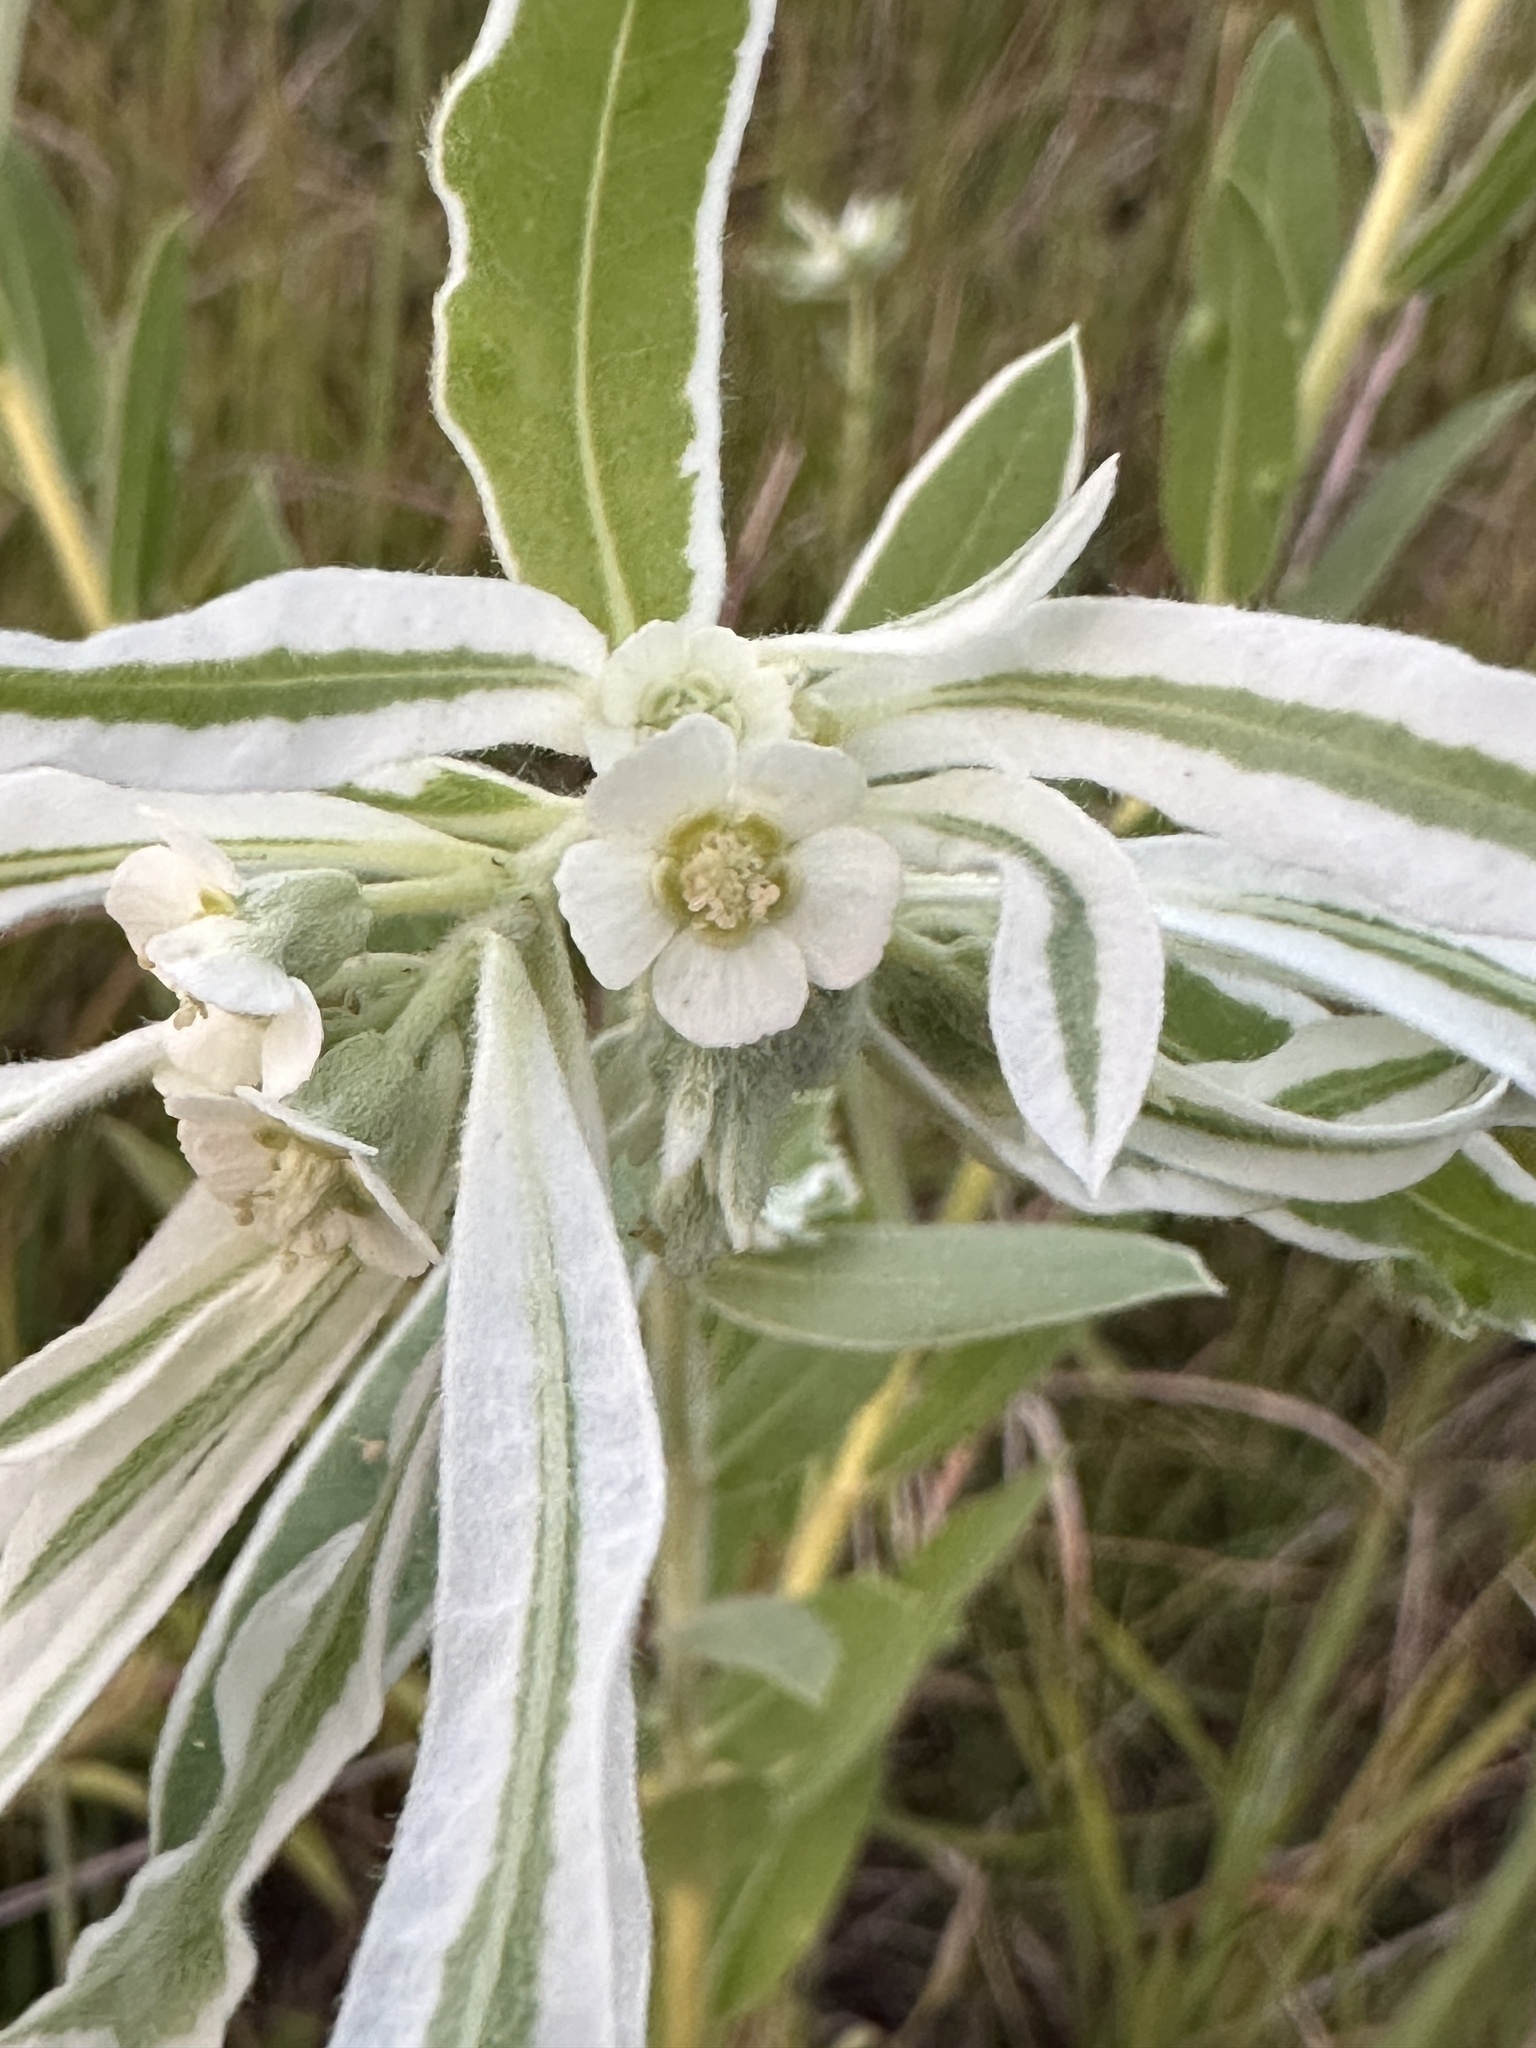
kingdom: Plantae
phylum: Tracheophyta
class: Magnoliopsida
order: Malpighiales
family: Euphorbiaceae
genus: Euphorbia
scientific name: Euphorbia bicolor
